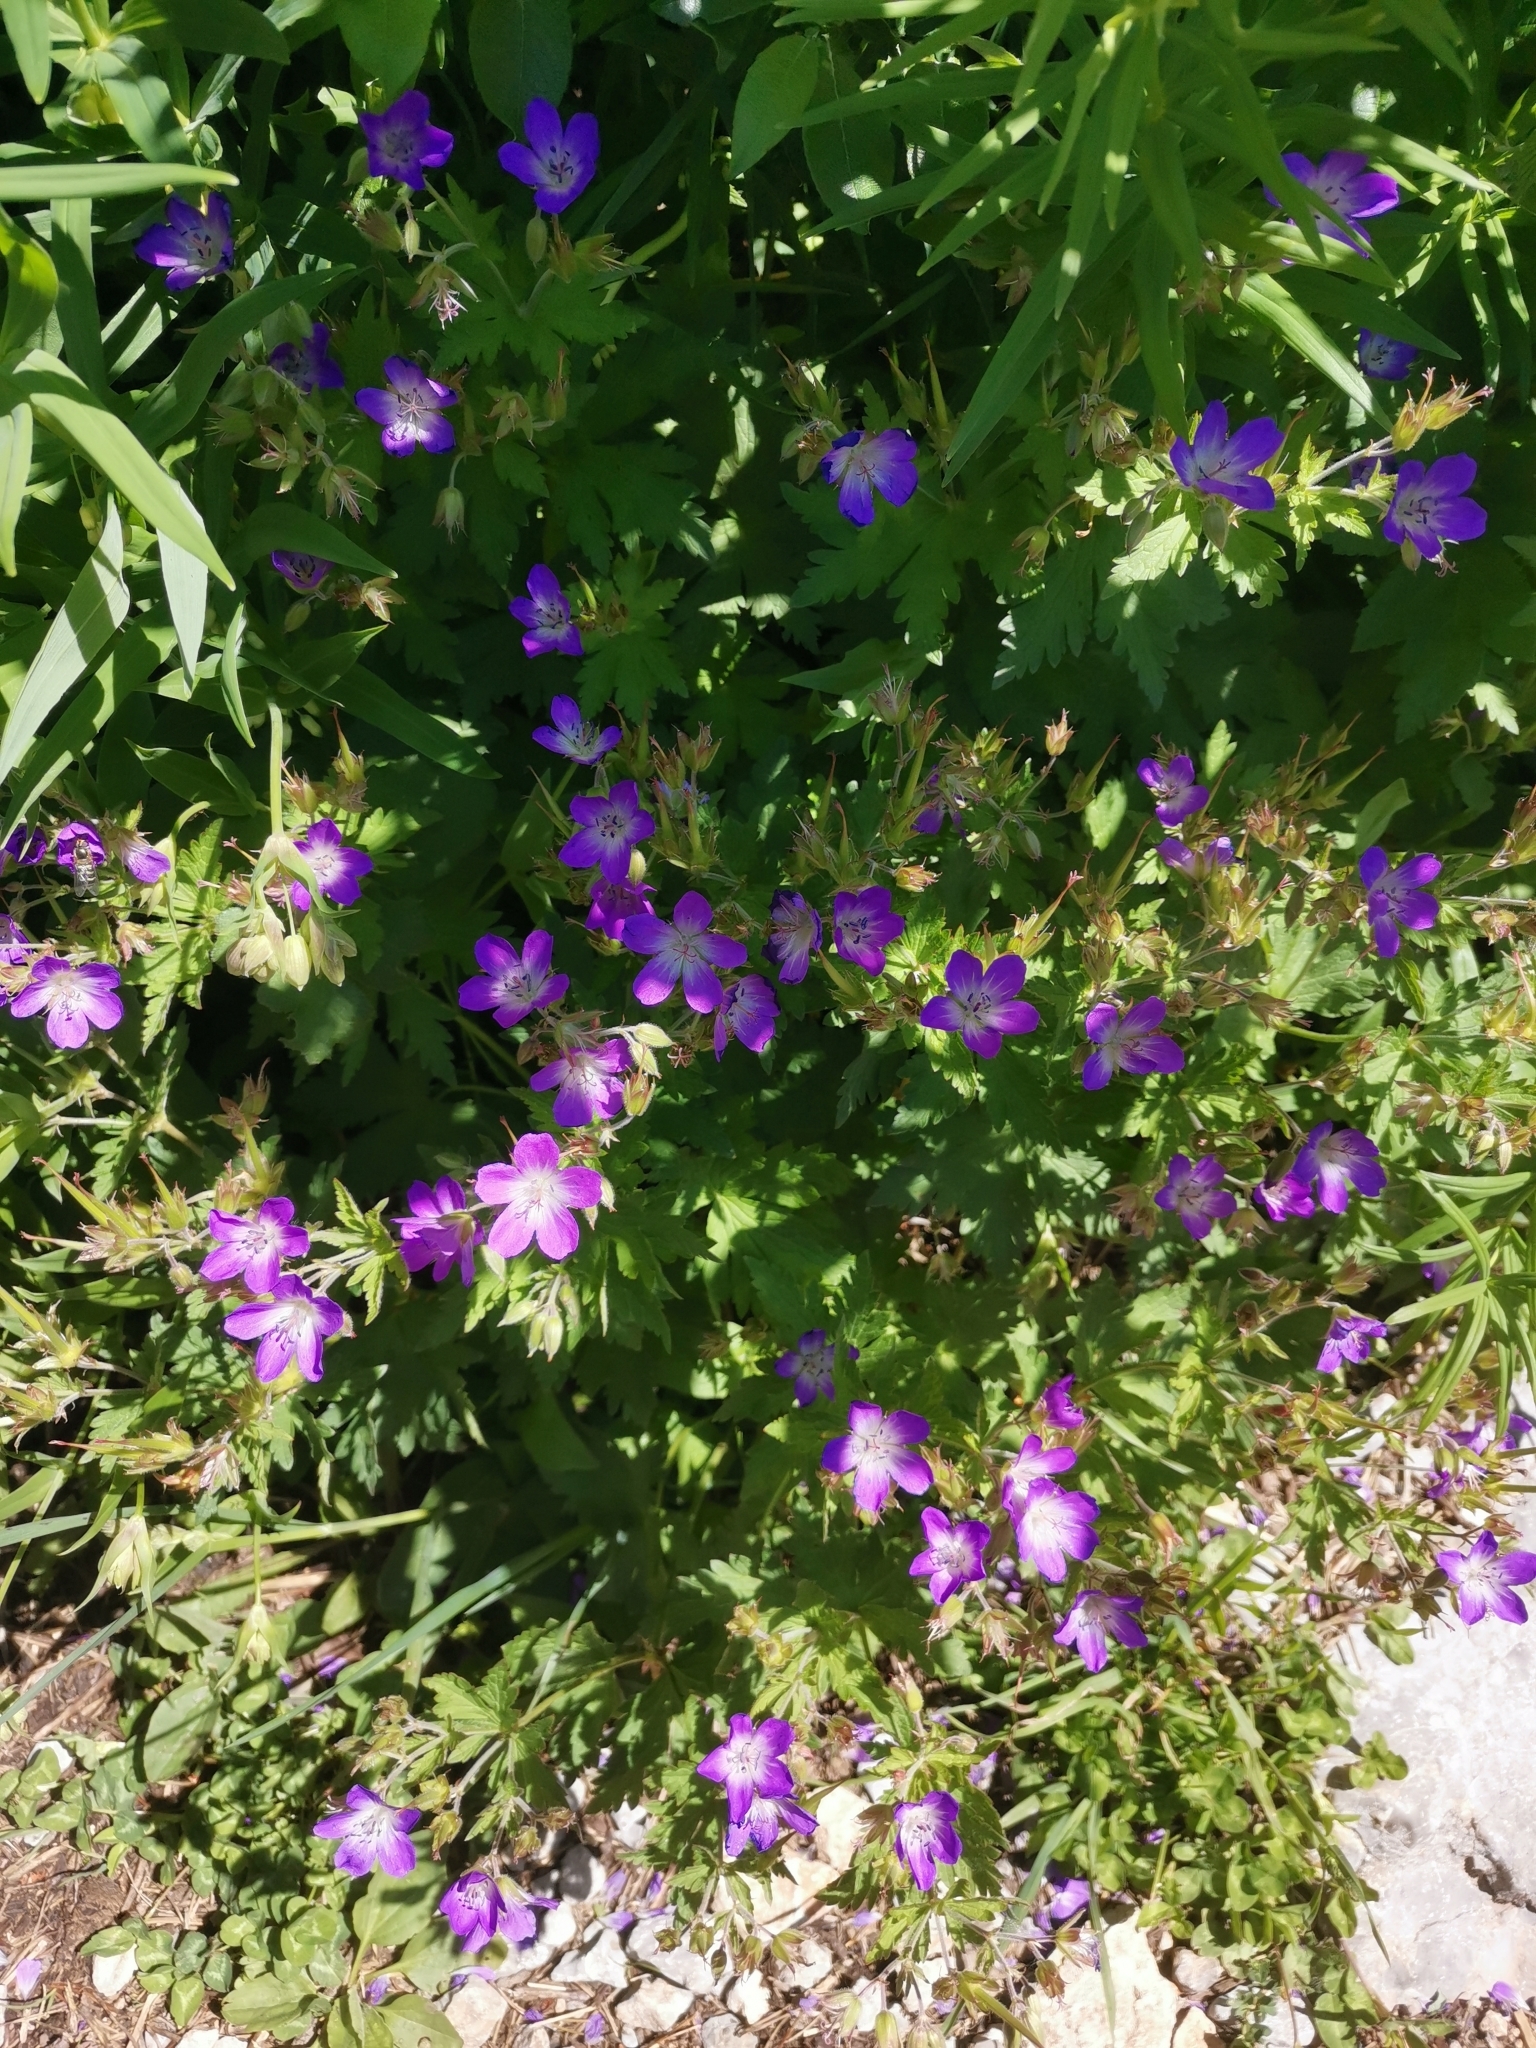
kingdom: Plantae
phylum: Tracheophyta
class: Magnoliopsida
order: Geraniales
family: Geraniaceae
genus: Geranium
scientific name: Geranium sylvaticum
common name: Wood crane's-bill
